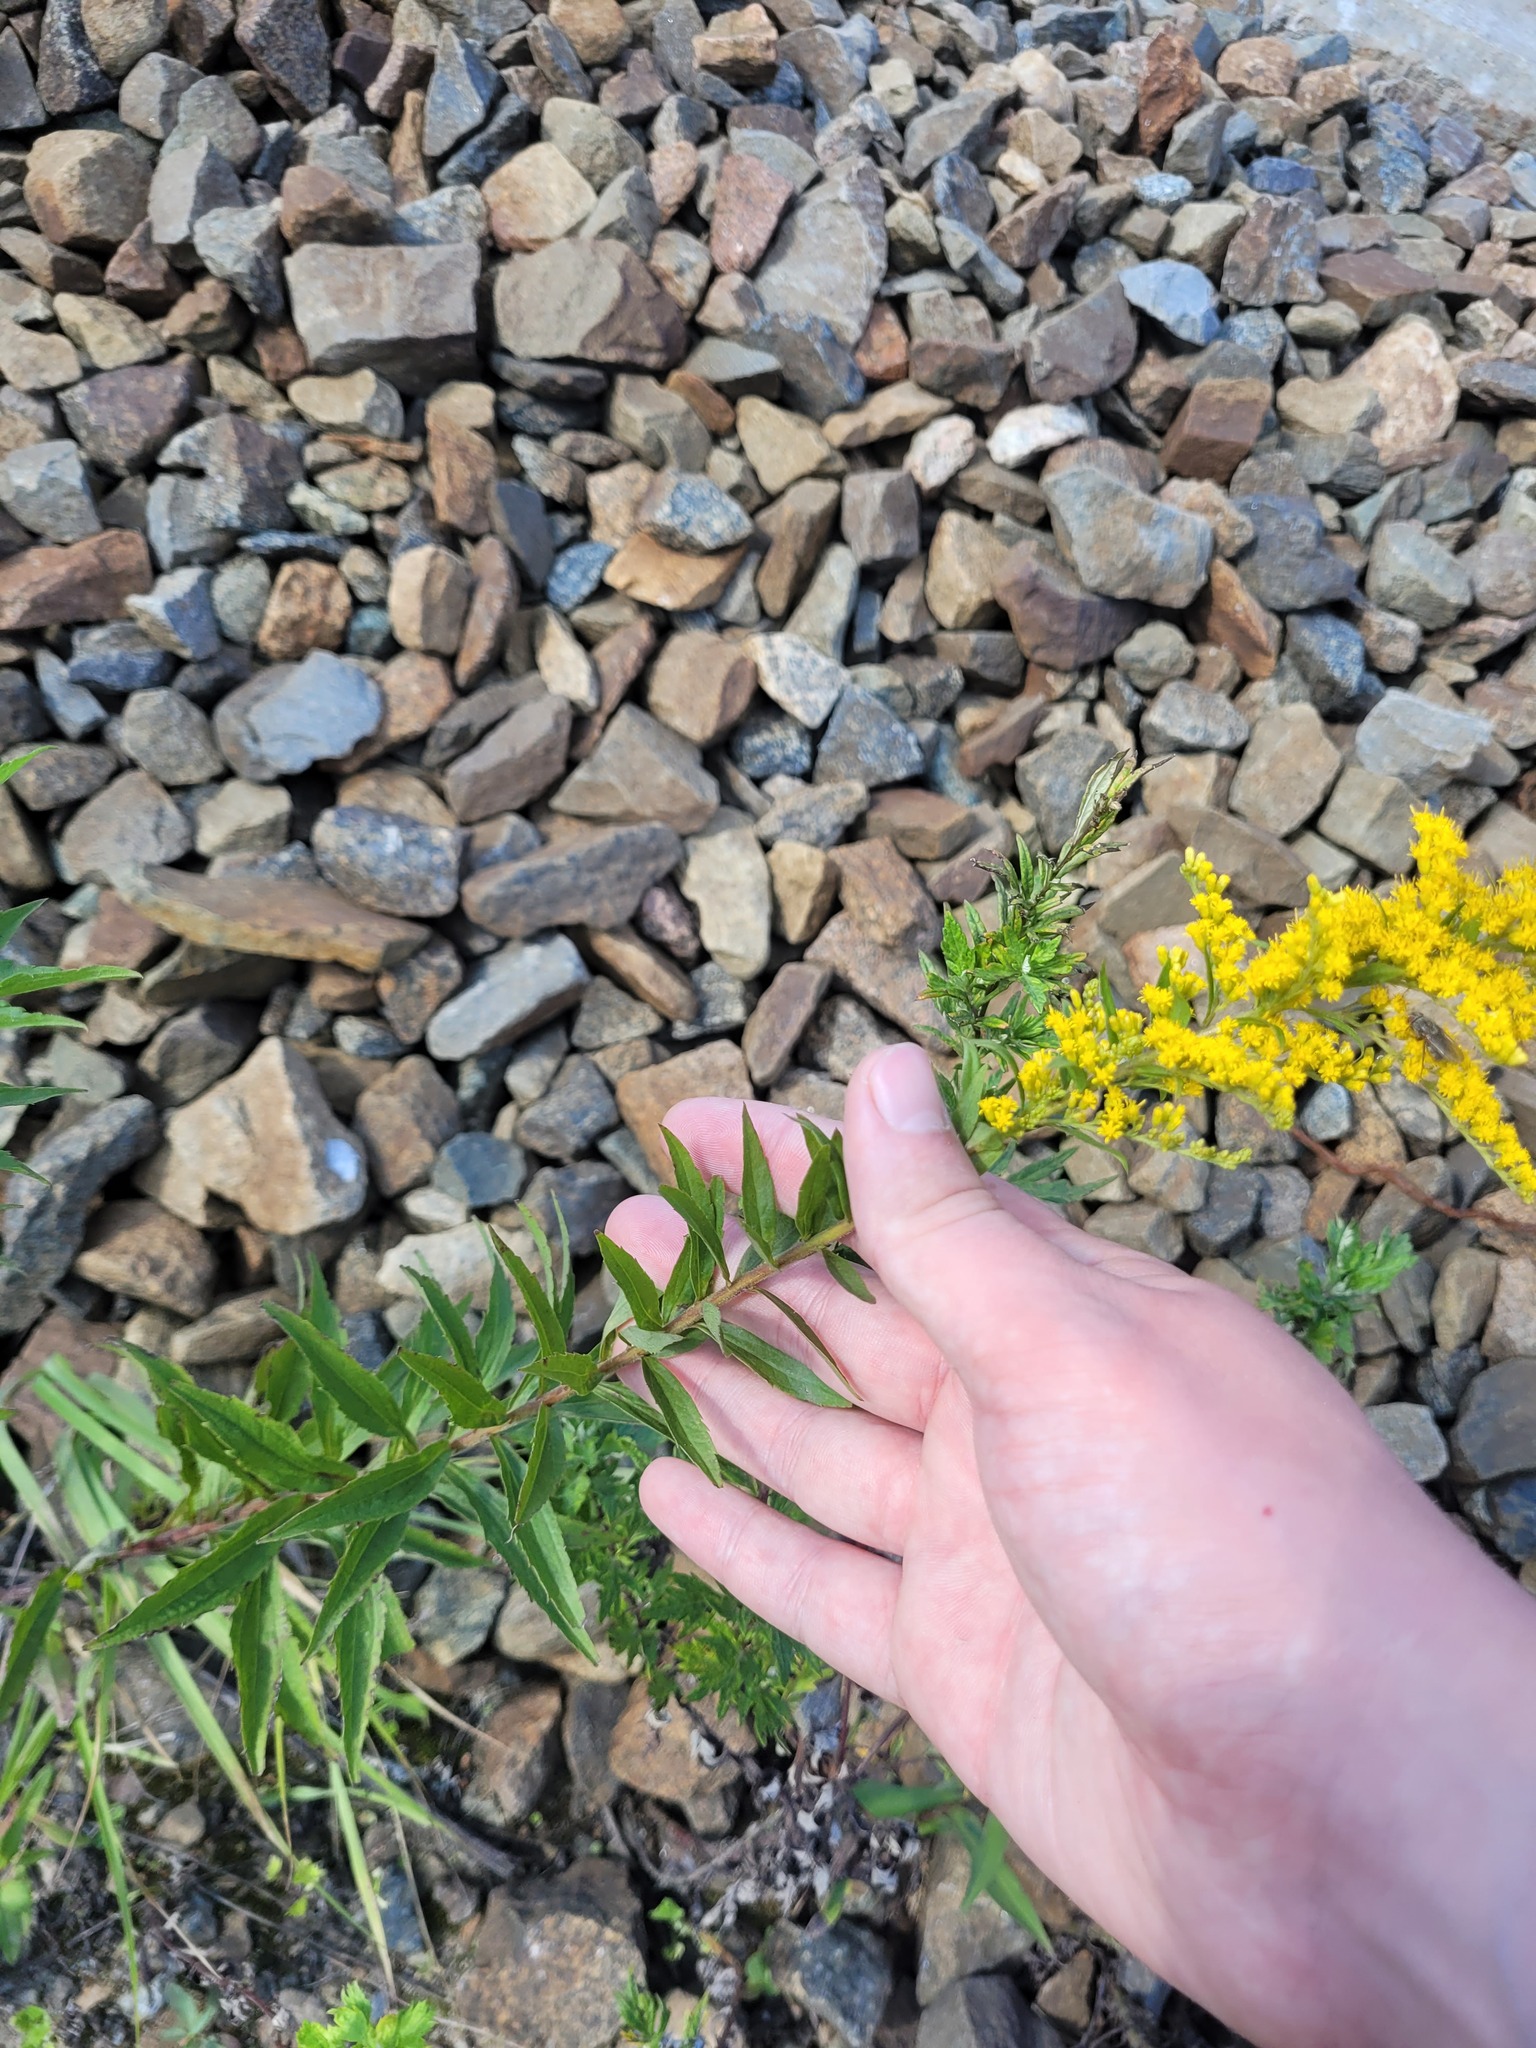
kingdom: Plantae
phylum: Tracheophyta
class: Magnoliopsida
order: Asterales
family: Asteraceae
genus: Solidago
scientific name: Solidago canadensis
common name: Canada goldenrod
